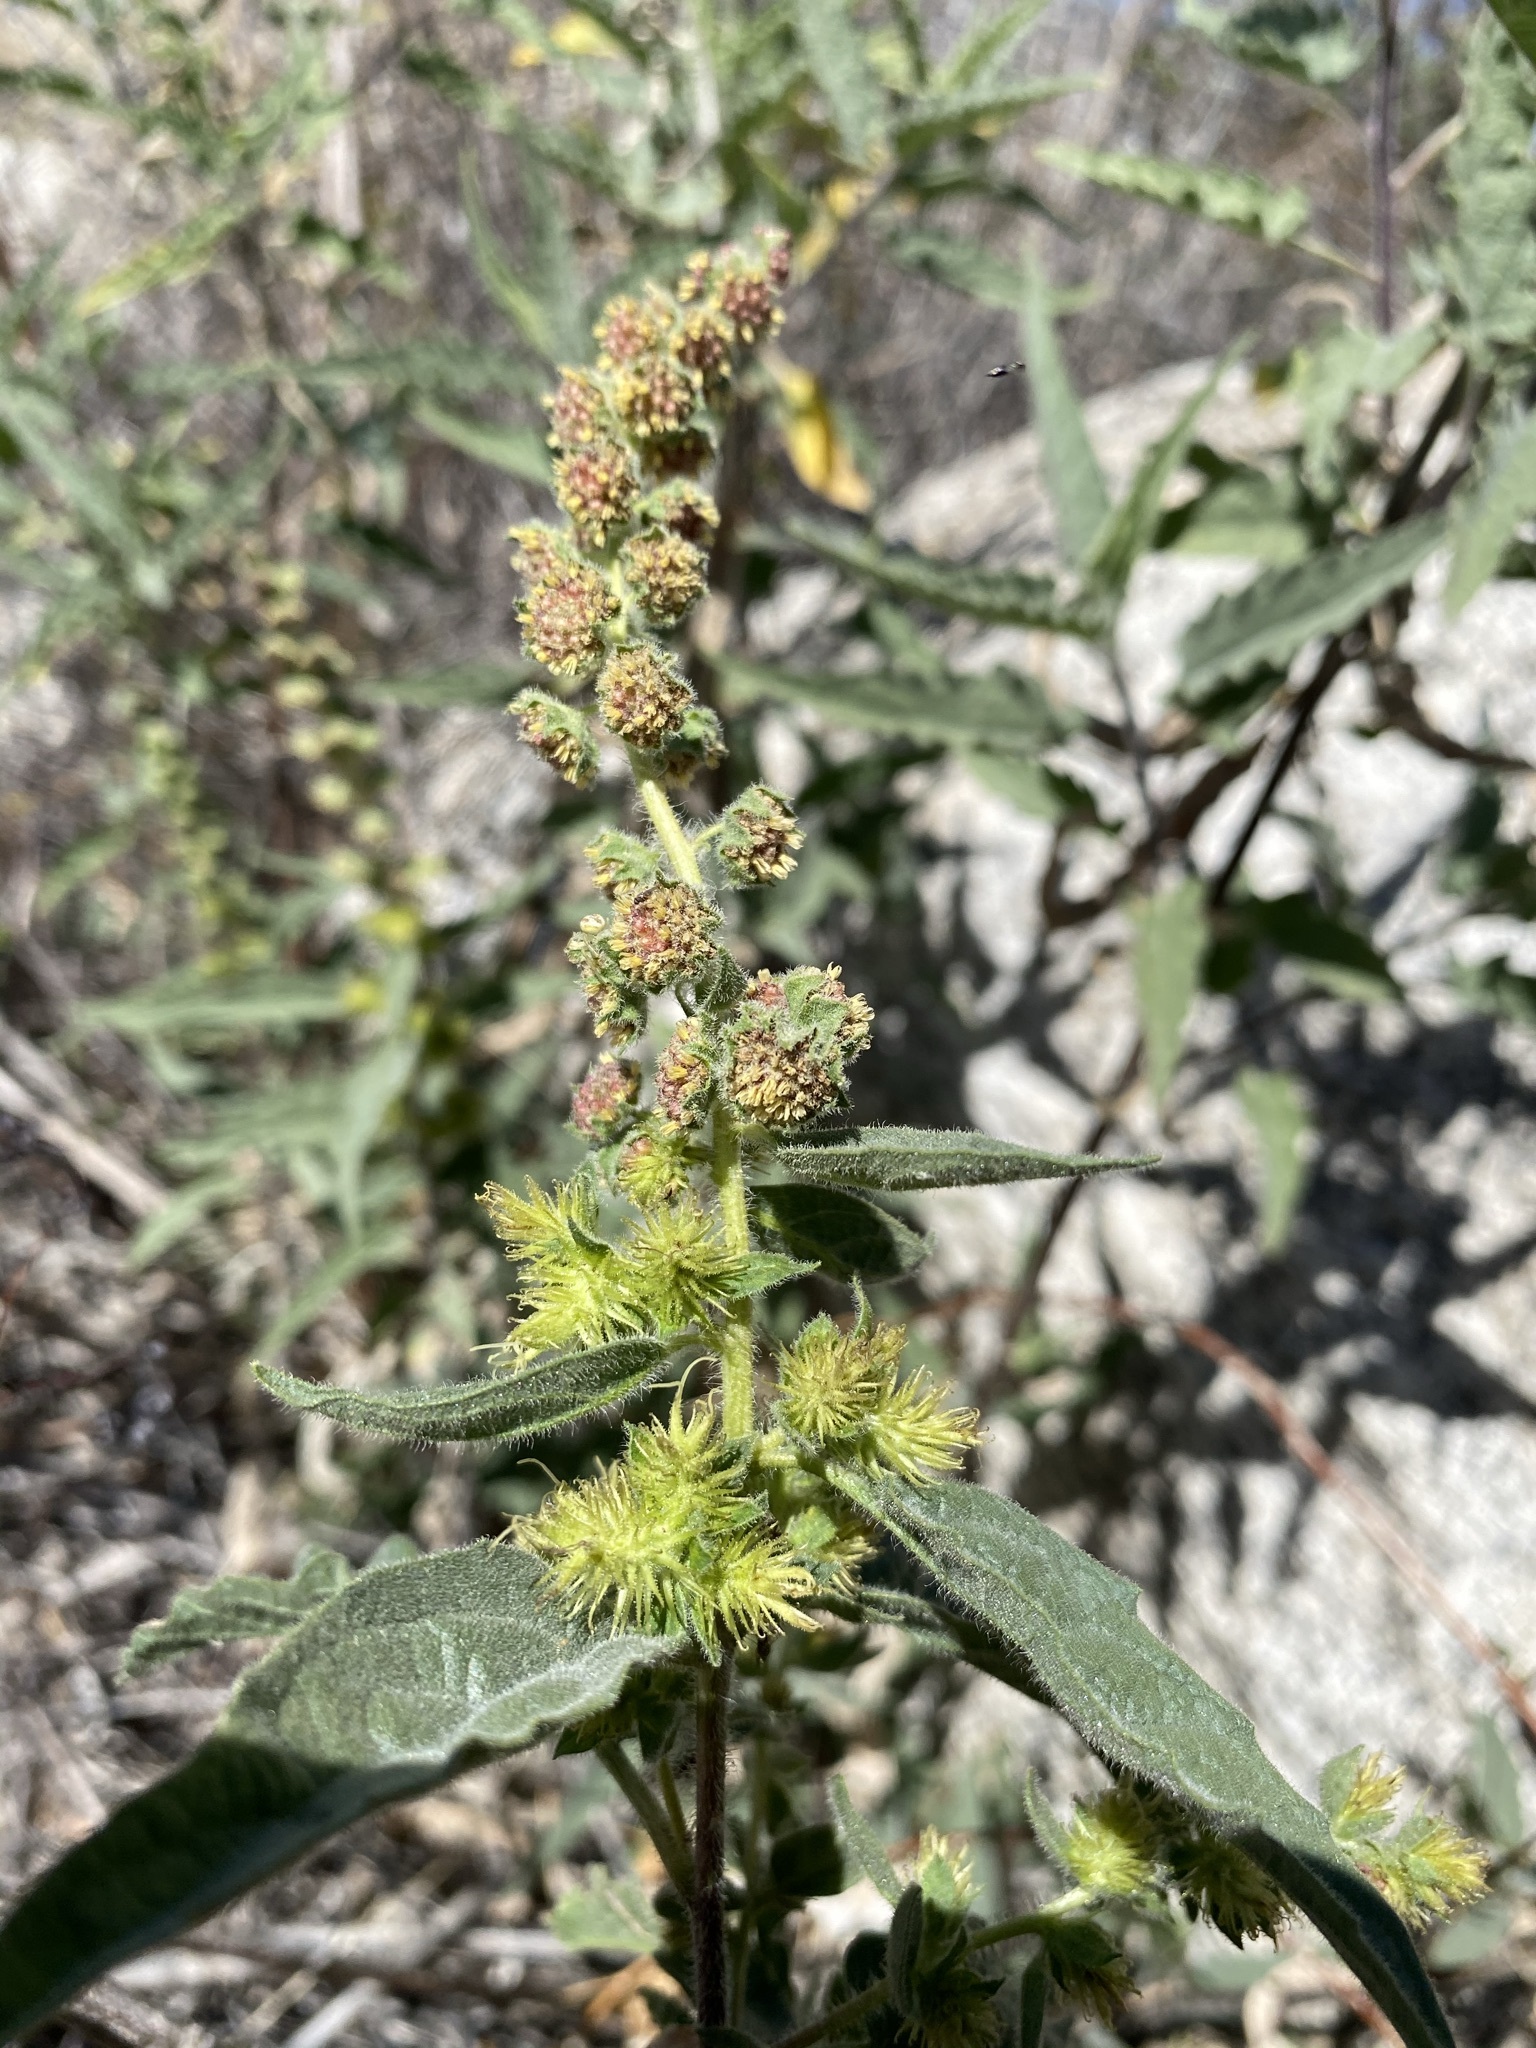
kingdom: Plantae
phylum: Tracheophyta
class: Magnoliopsida
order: Asterales
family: Asteraceae
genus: Ambrosia
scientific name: Ambrosia ambrosioides
